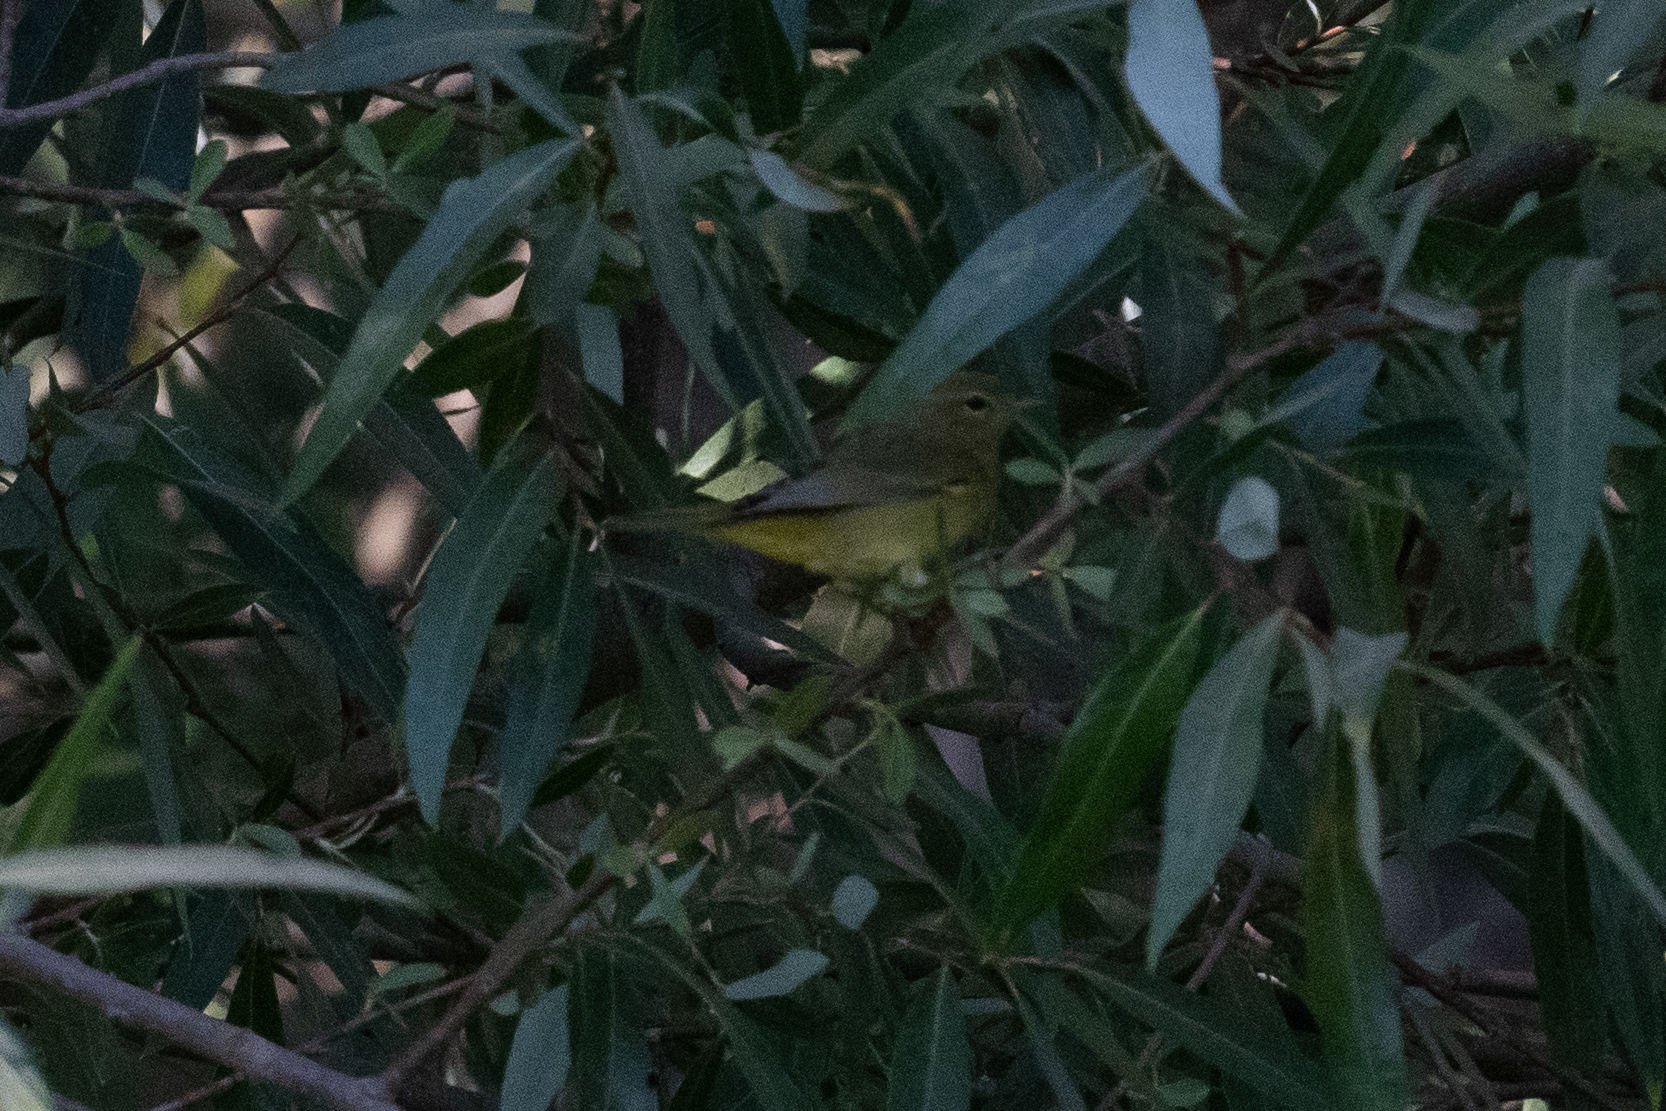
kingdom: Animalia
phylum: Chordata
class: Aves
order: Passeriformes
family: Parulidae
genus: Leiothlypis
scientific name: Leiothlypis celata
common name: Orange-crowned warbler
